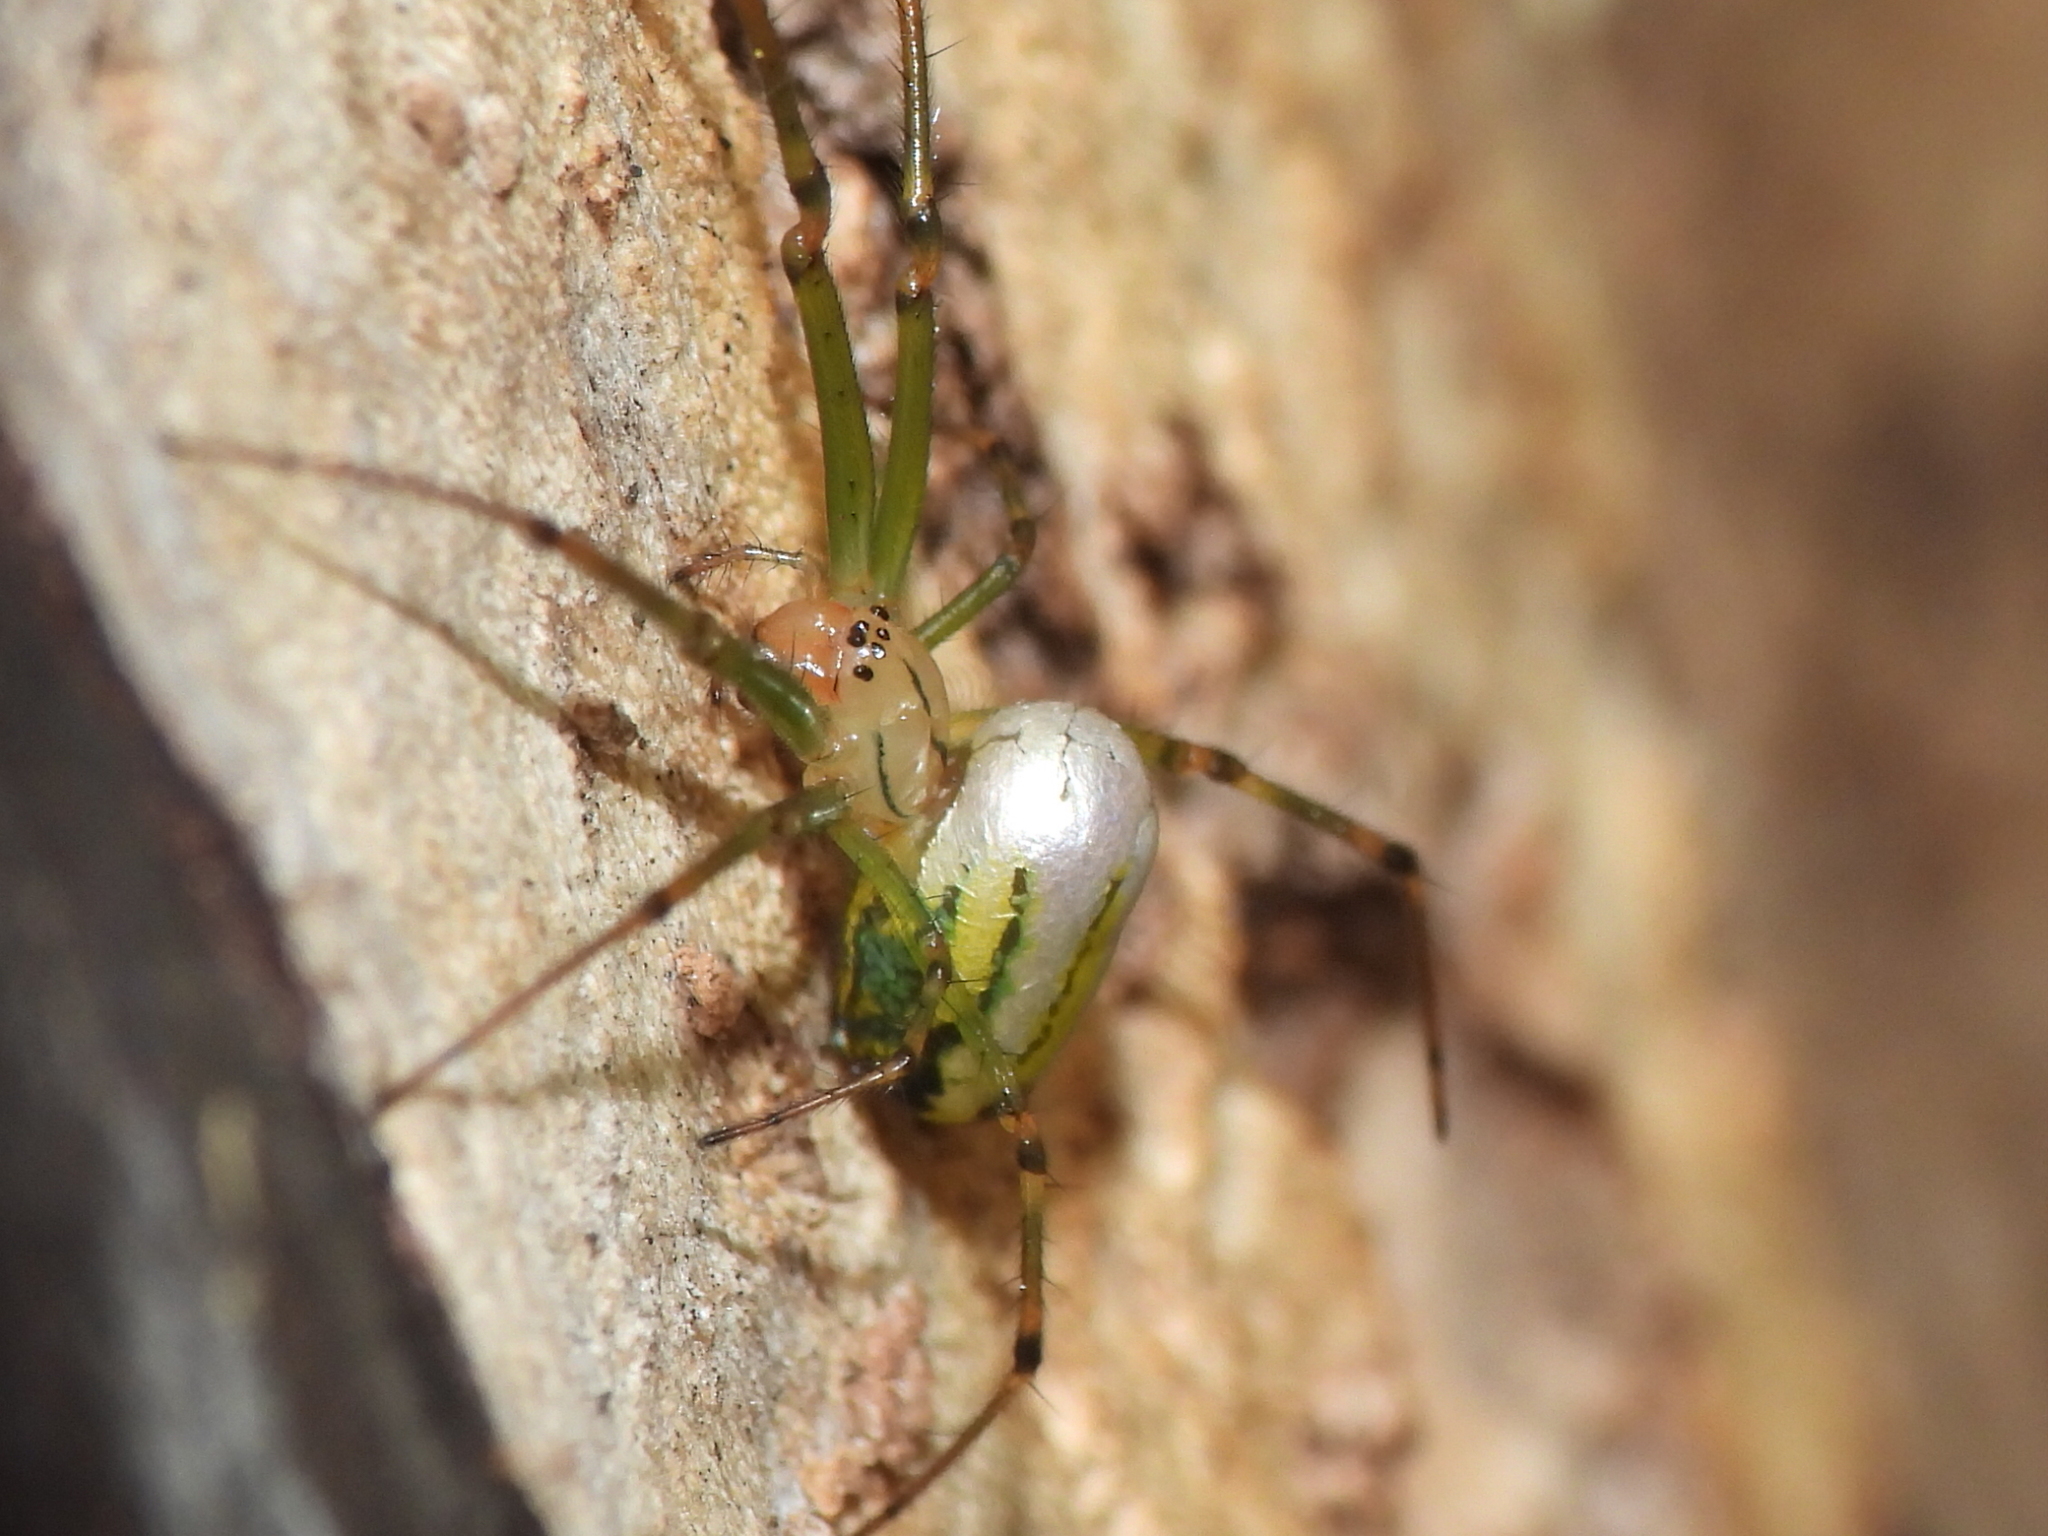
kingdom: Animalia
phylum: Arthropoda
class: Arachnida
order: Araneae
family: Tetragnathidae
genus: Leucauge
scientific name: Leucauge venusta
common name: Longjawed orb weavers
